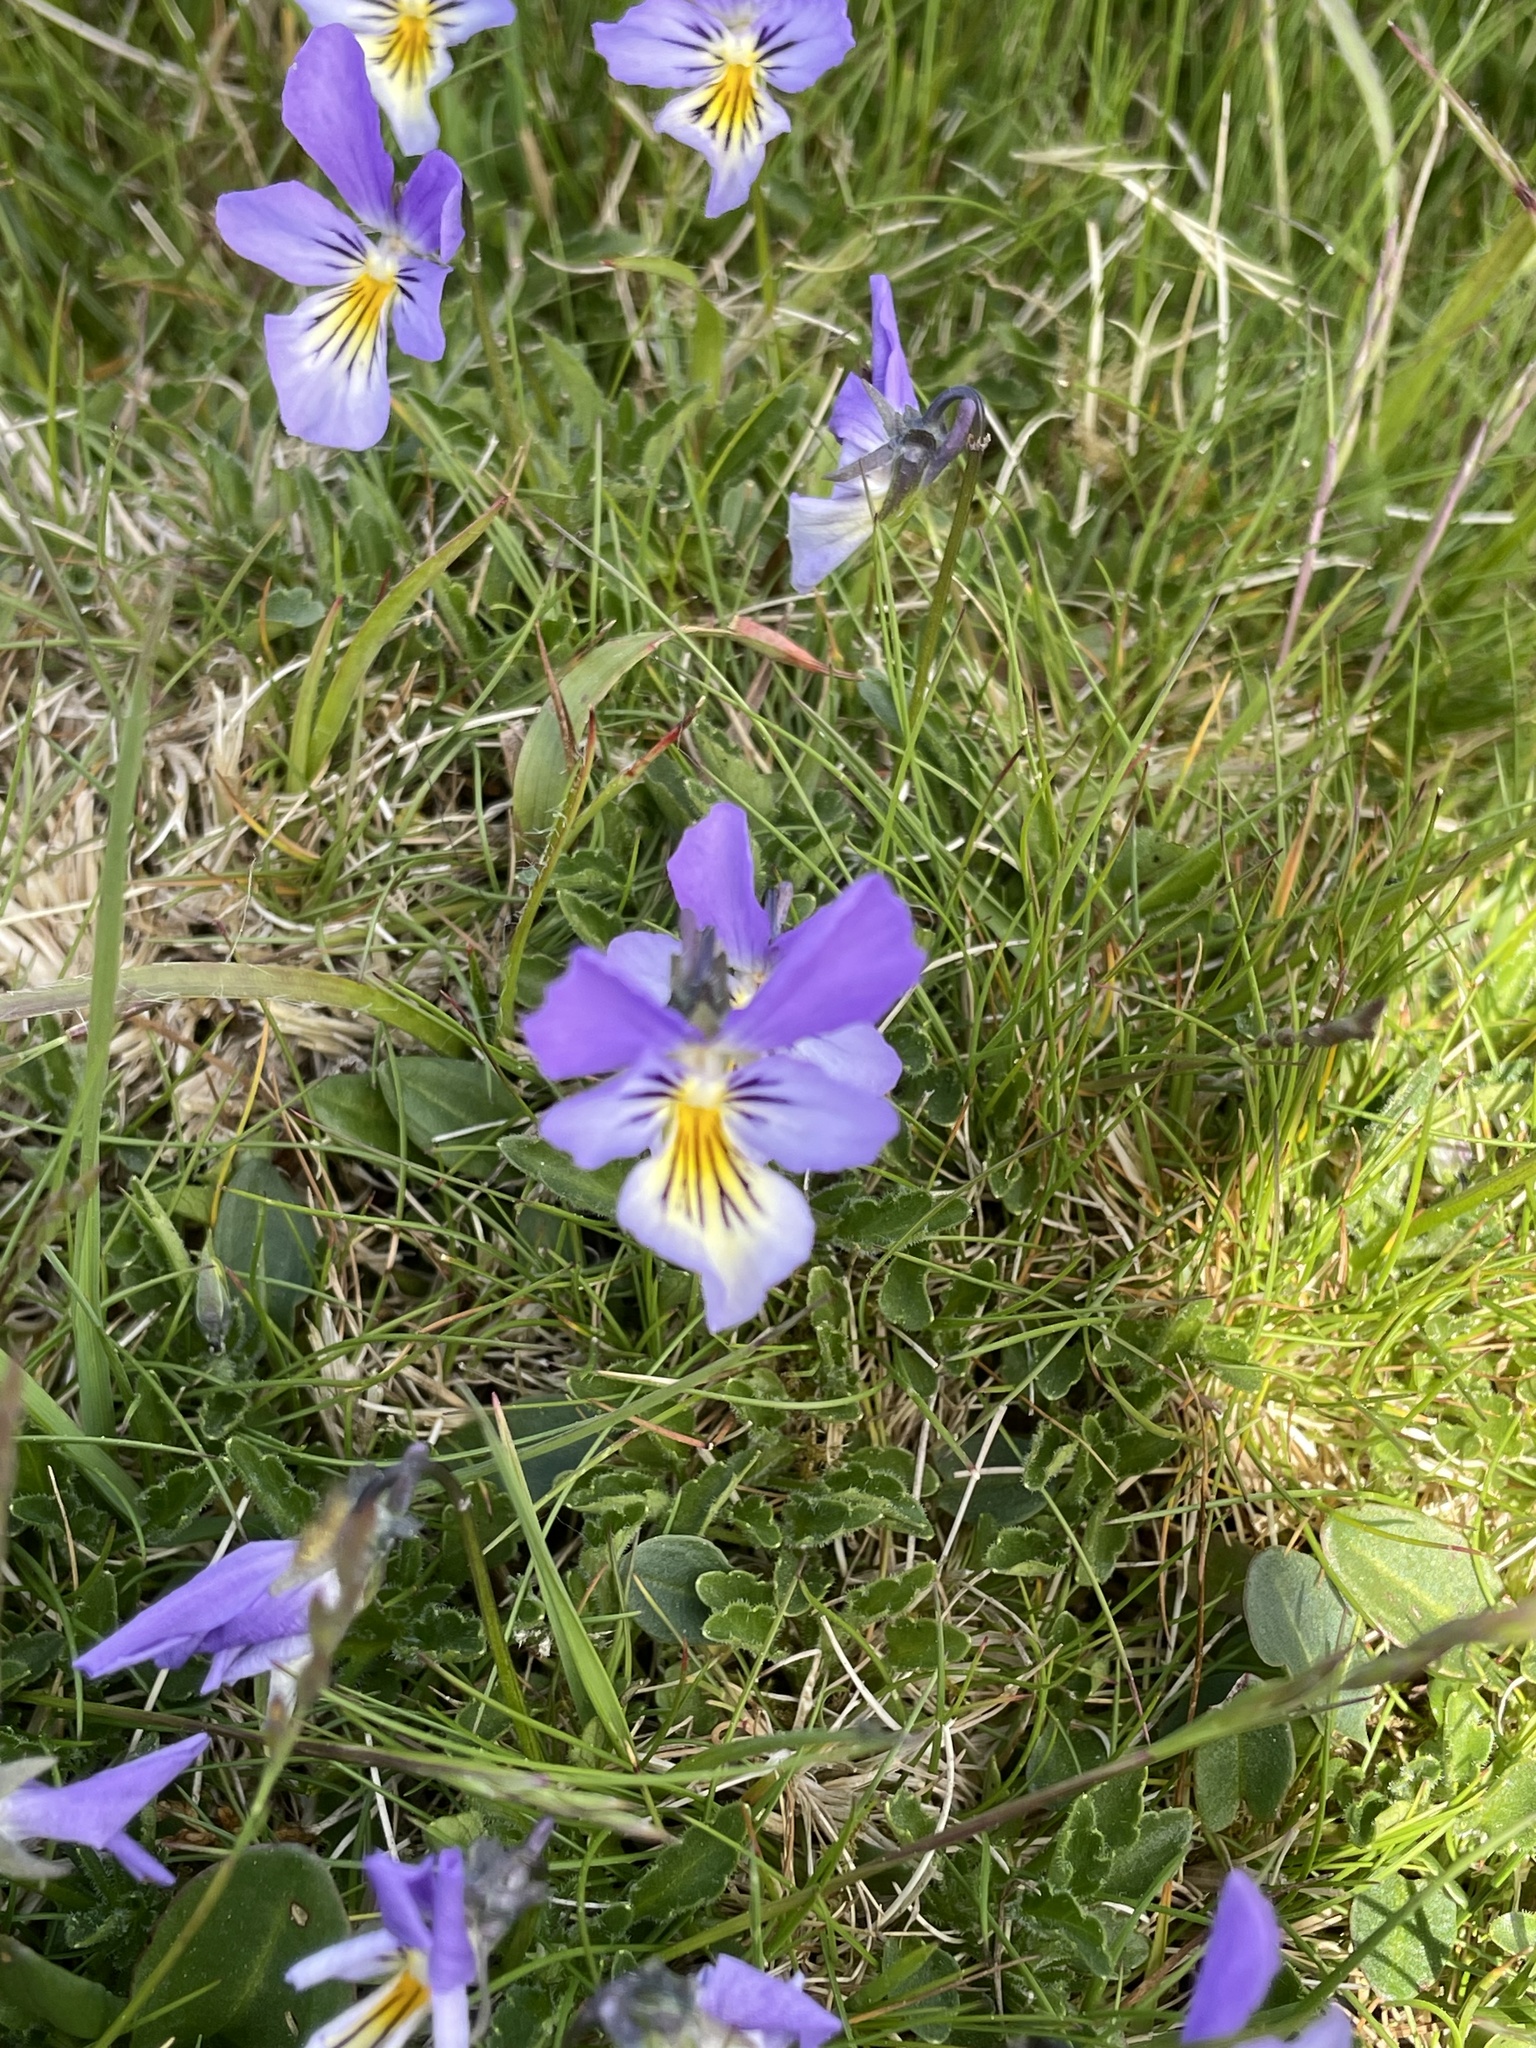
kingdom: Plantae
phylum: Tracheophyta
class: Magnoliopsida
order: Malpighiales
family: Violaceae
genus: Viola
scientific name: Viola tricolor
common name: Pansy
